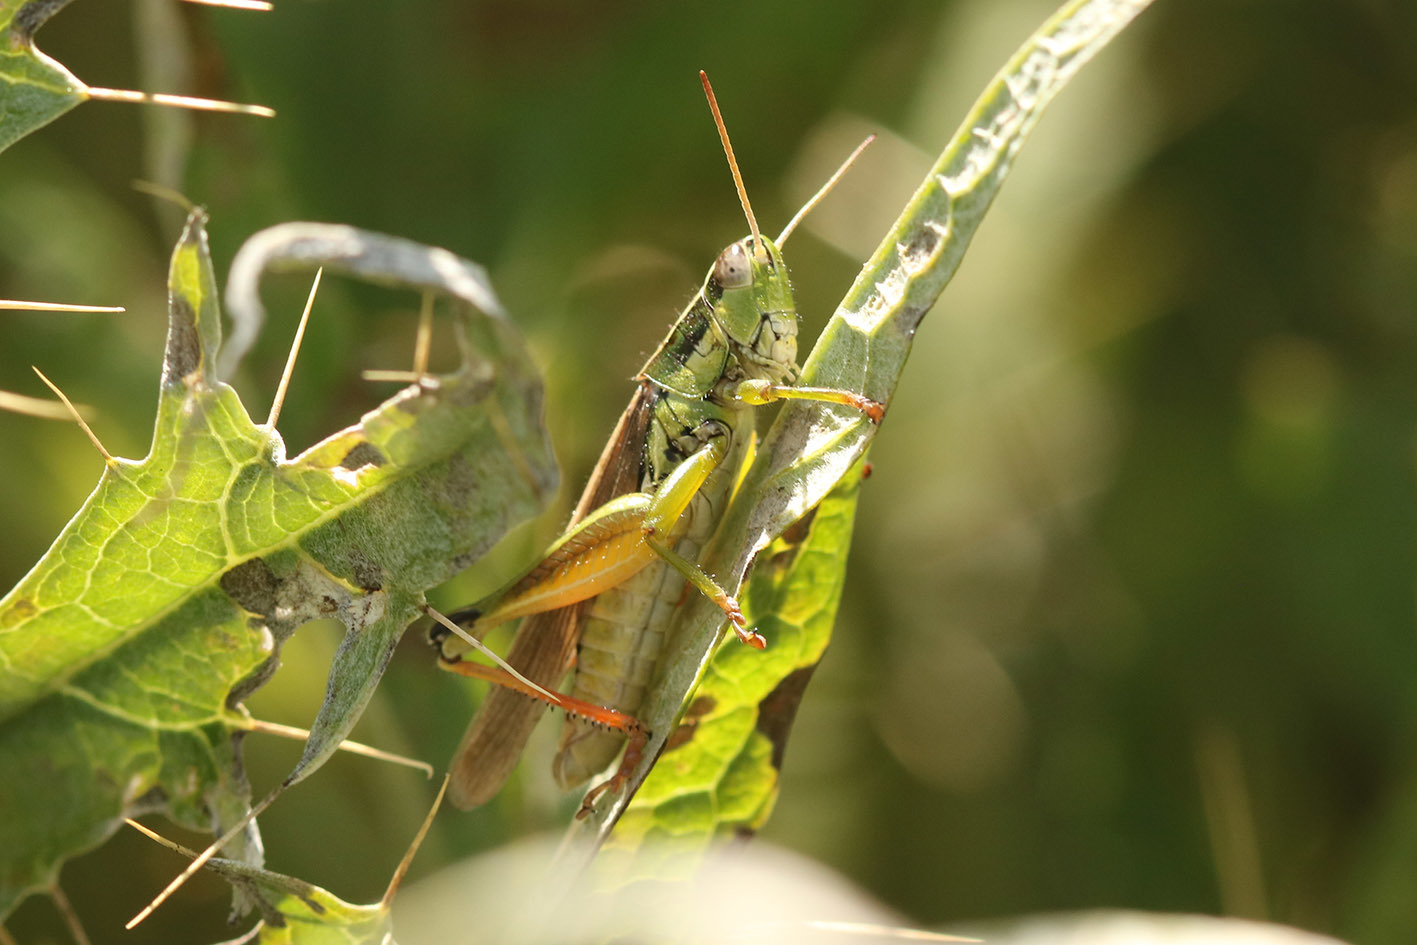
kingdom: Animalia
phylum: Arthropoda
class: Insecta
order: Orthoptera
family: Acrididae
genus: Scotussa
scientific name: Scotussa cliens
